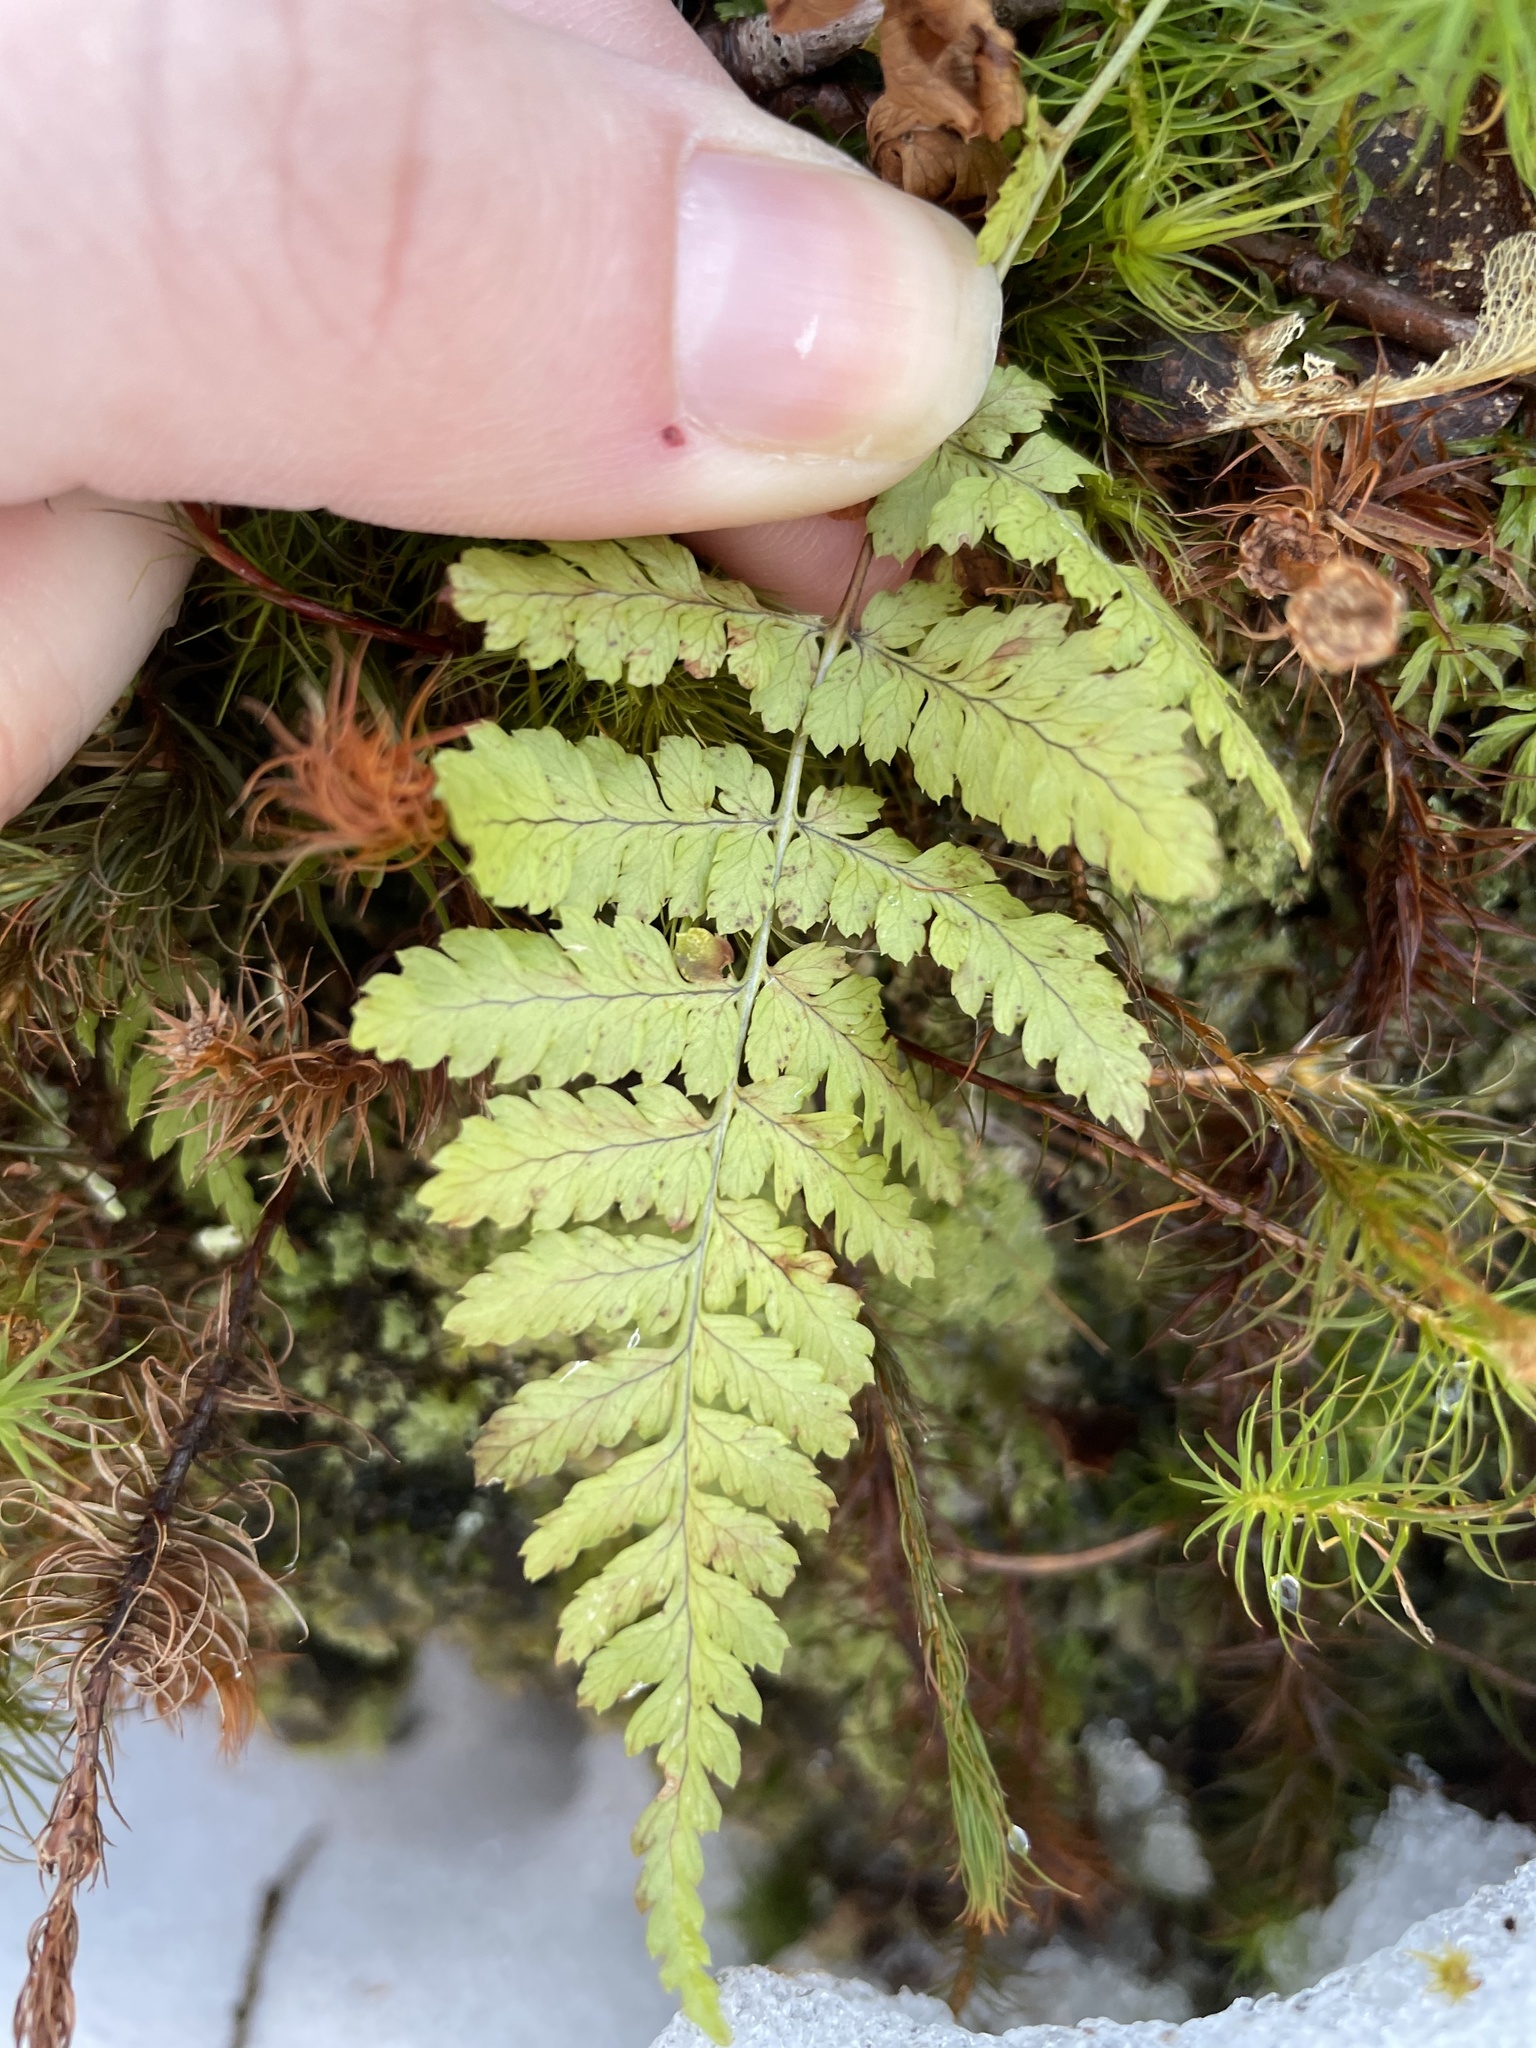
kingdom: Plantae
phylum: Tracheophyta
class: Polypodiopsida
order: Polypodiales
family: Dryopteridaceae
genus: Dryopteris
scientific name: Dryopteris intermedia
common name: Evergreen wood fern
